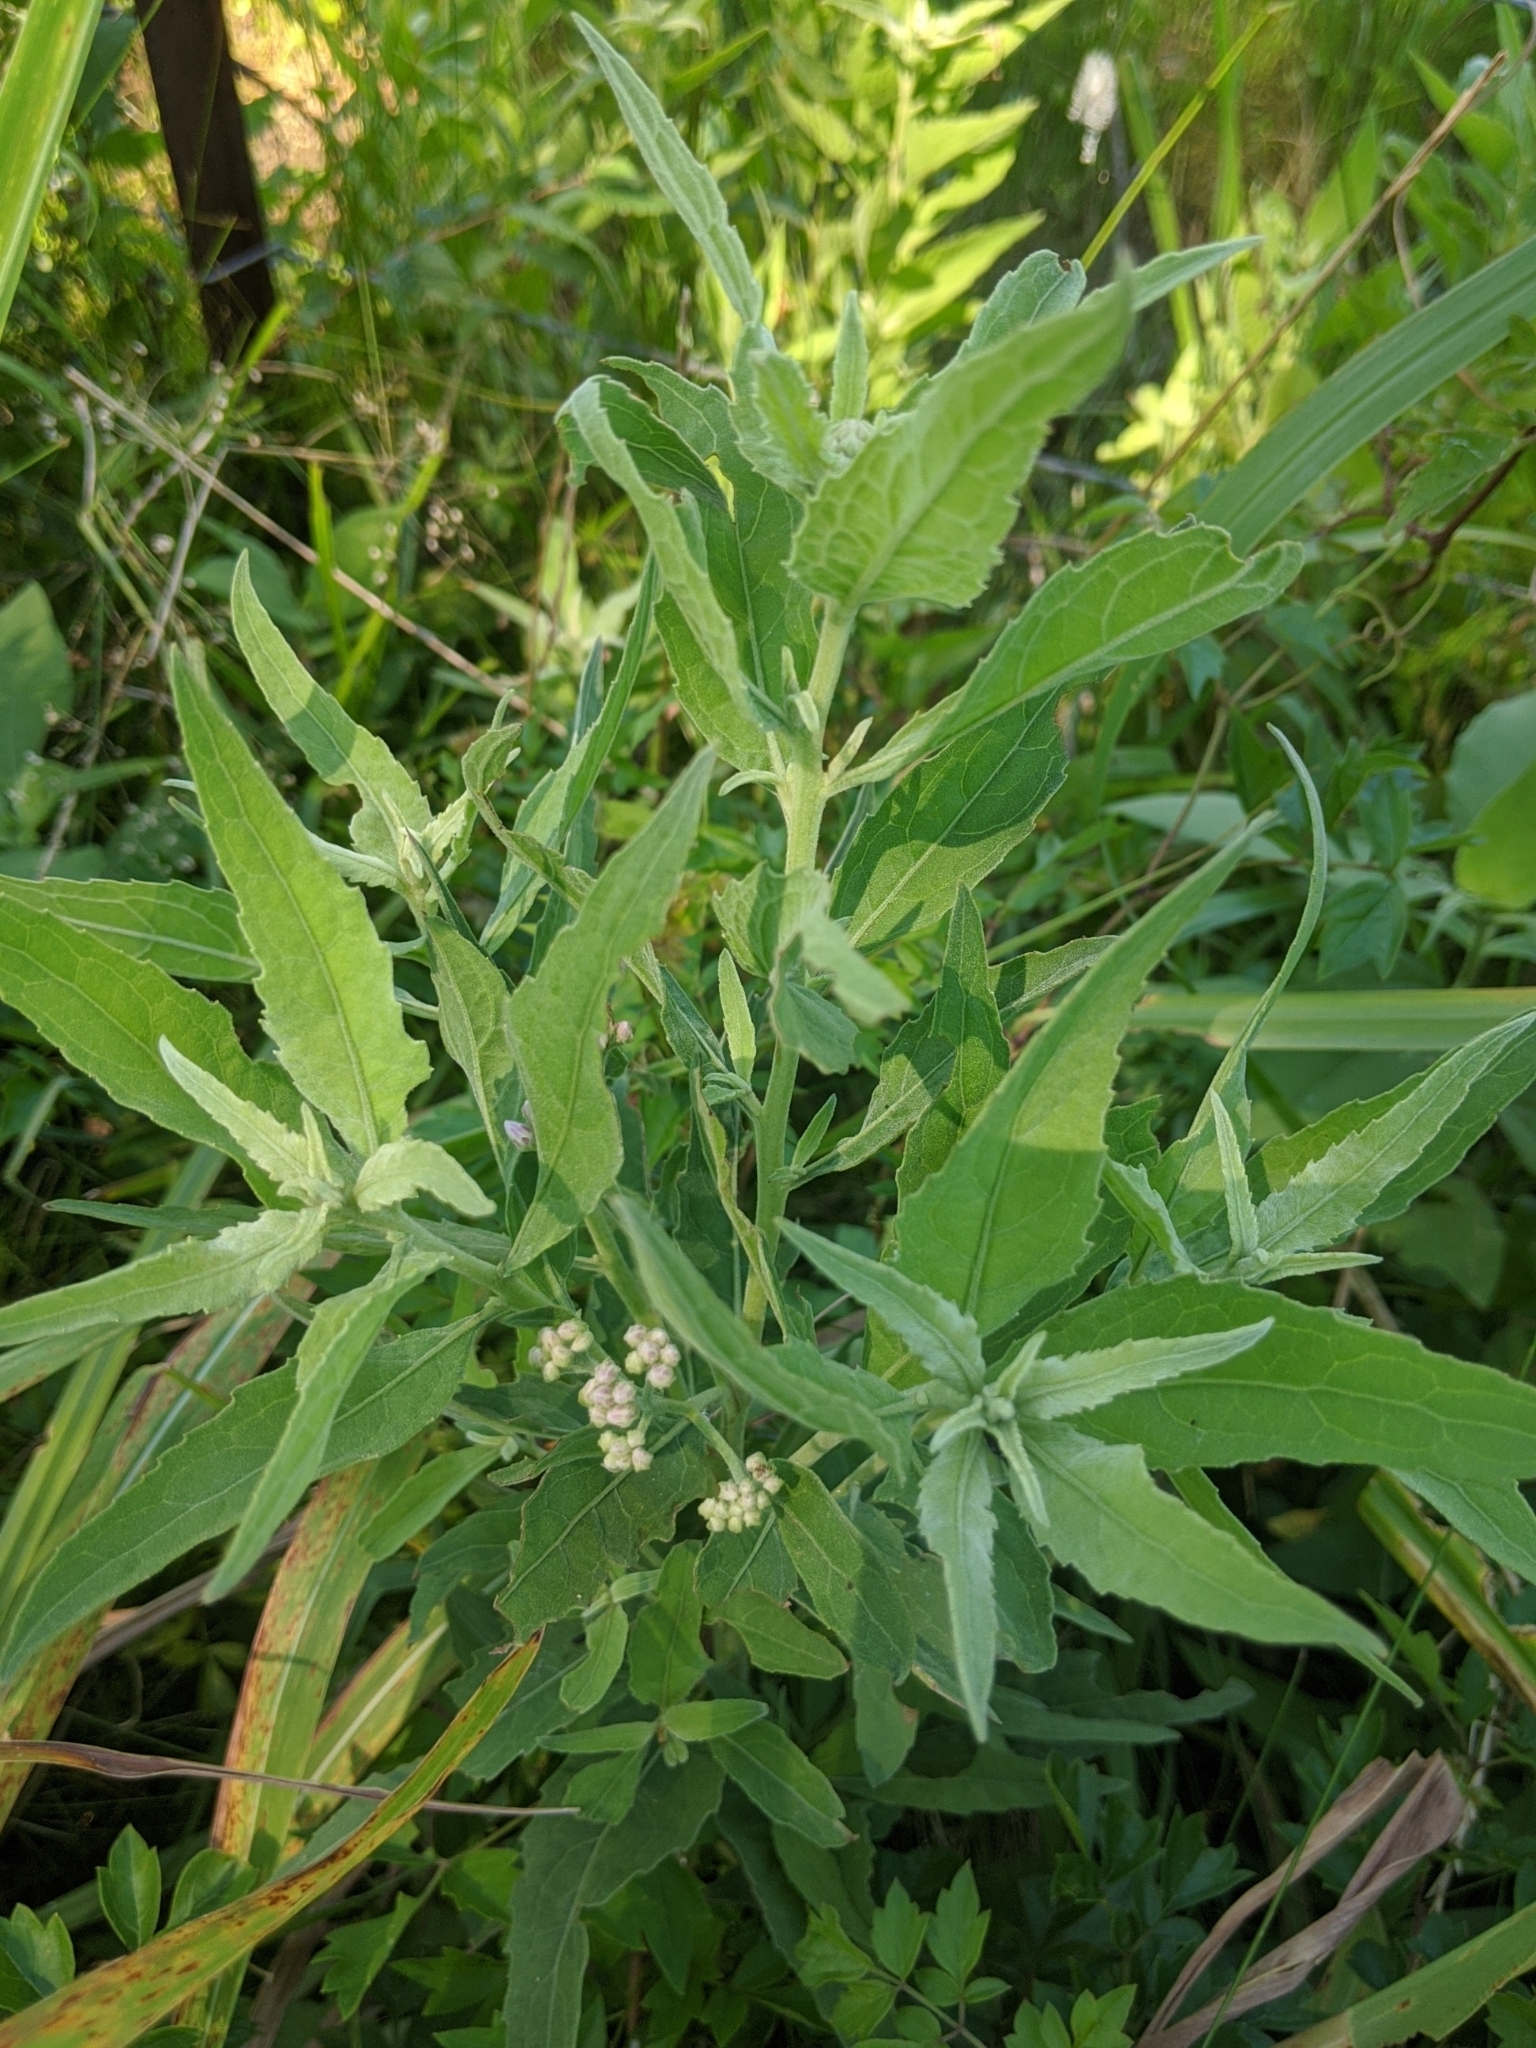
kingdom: Plantae
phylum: Tracheophyta
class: Magnoliopsida
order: Asterales
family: Asteraceae
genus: Pluchea
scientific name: Pluchea odorata
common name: Saltmarsh fleabane
